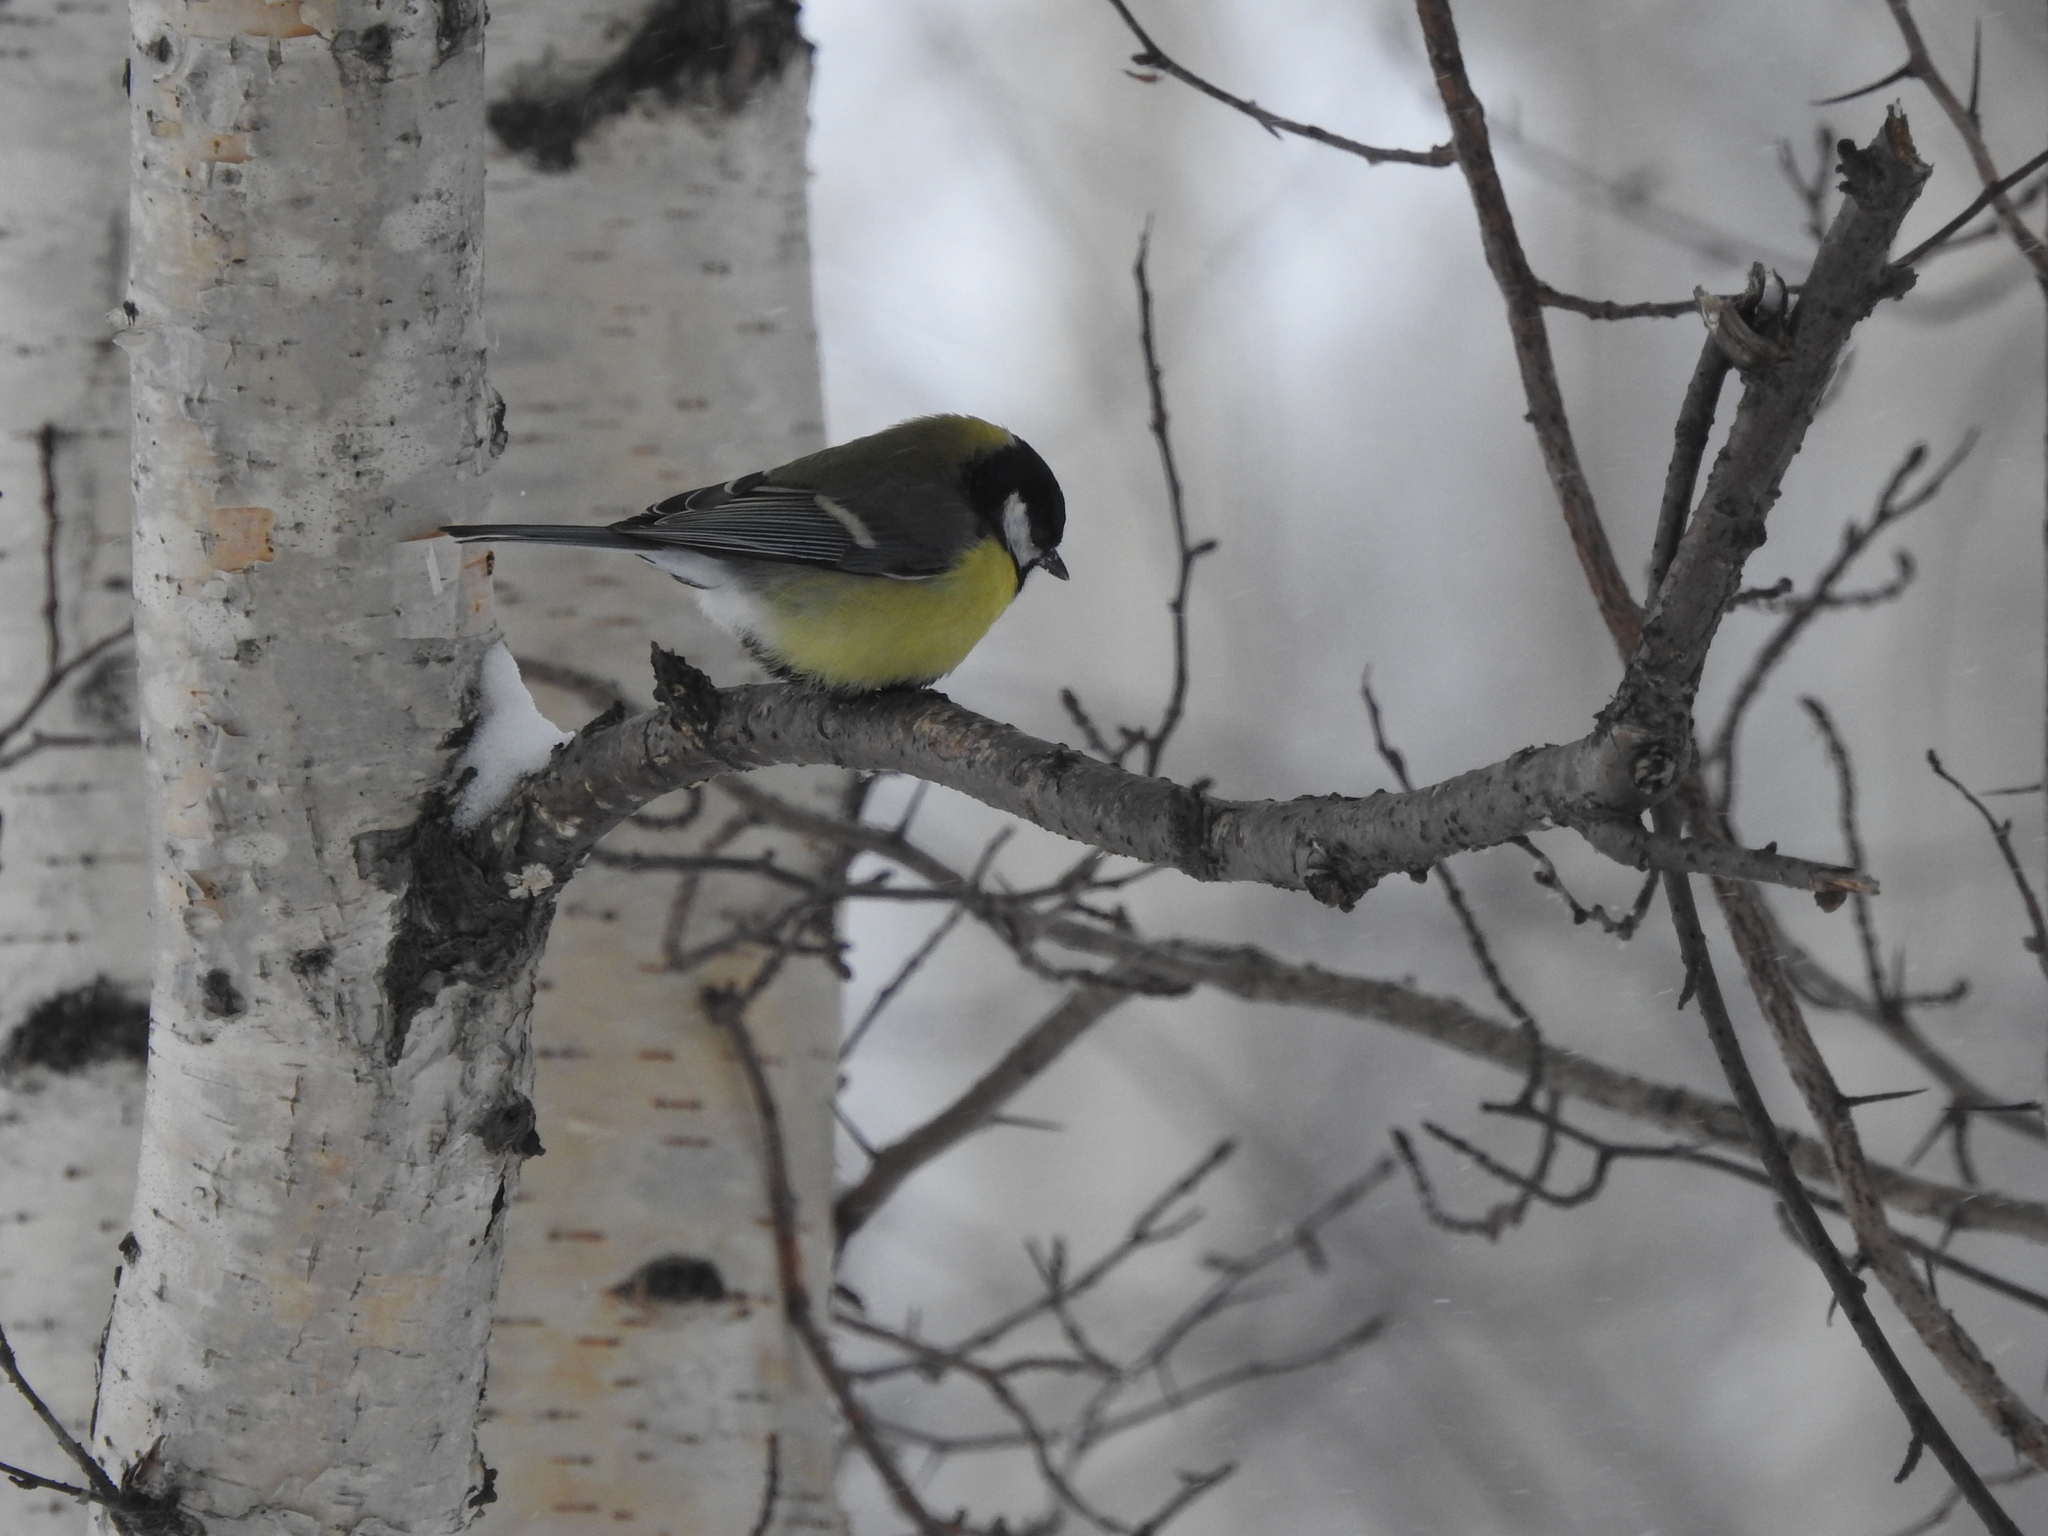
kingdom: Animalia
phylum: Chordata
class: Aves
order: Passeriformes
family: Paridae
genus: Parus
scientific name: Parus major
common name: Great tit
